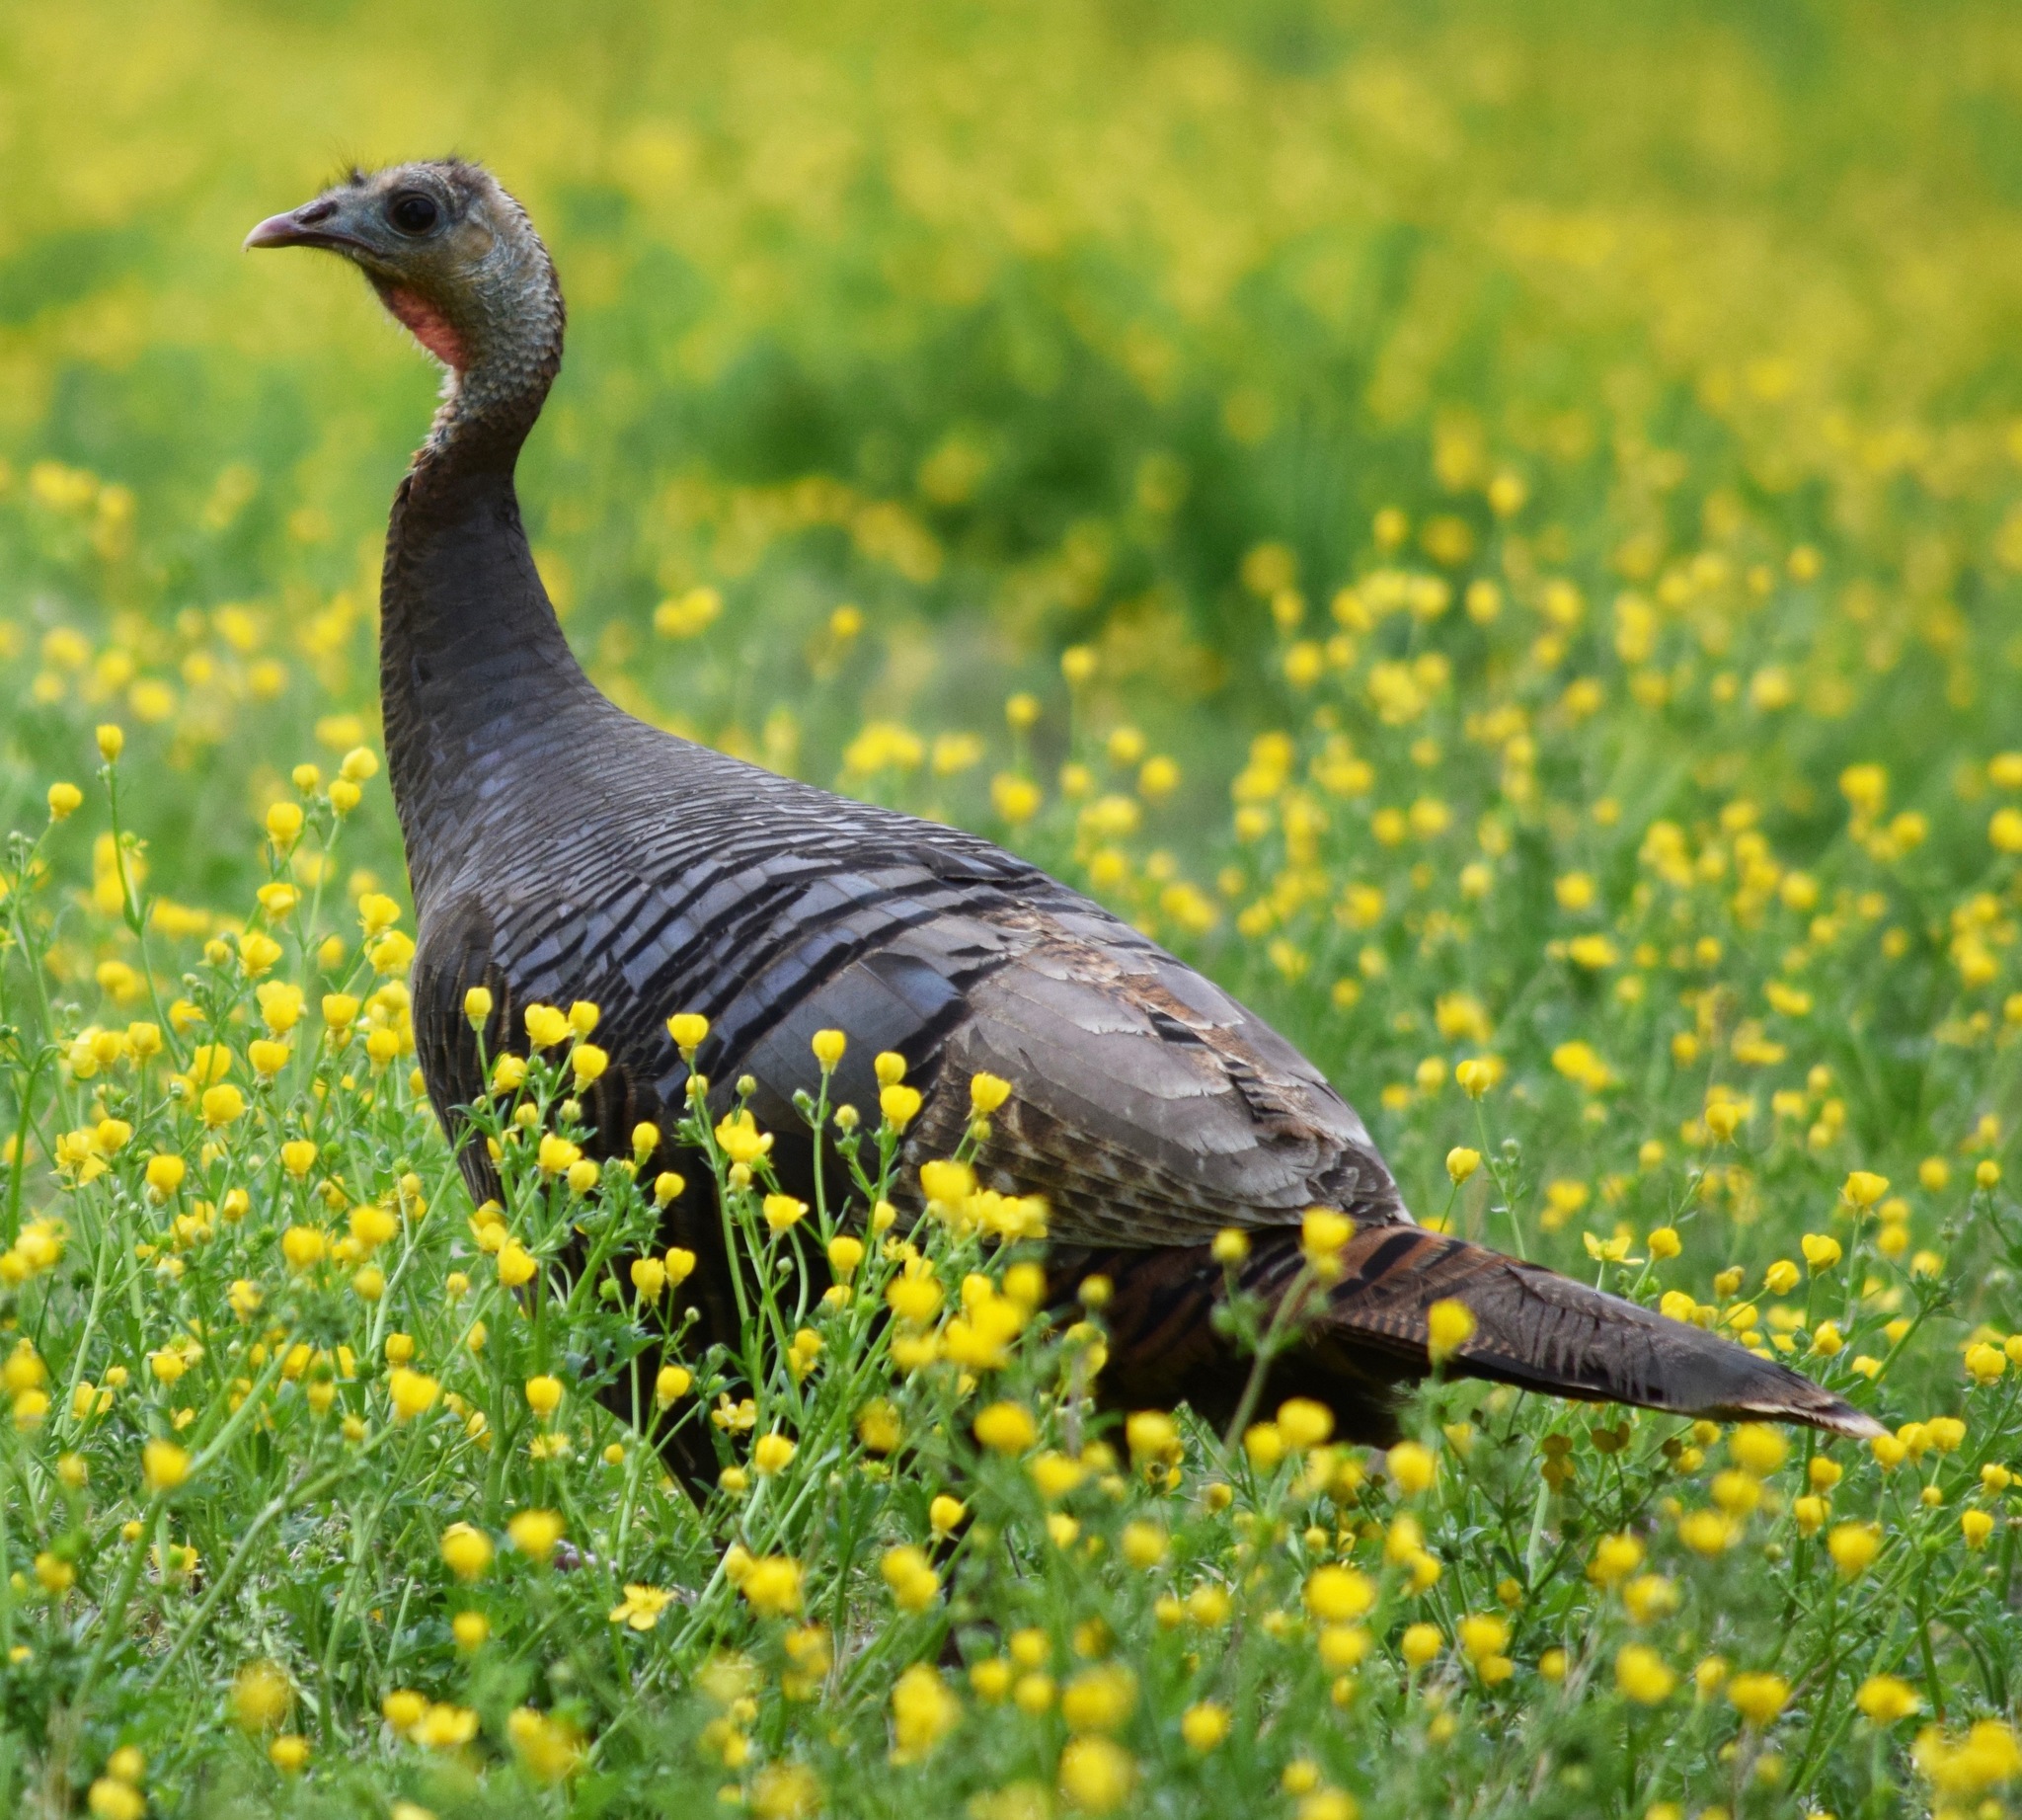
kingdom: Animalia
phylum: Chordata
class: Aves
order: Galliformes
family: Phasianidae
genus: Meleagris
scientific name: Meleagris gallopavo
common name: Wild turkey
